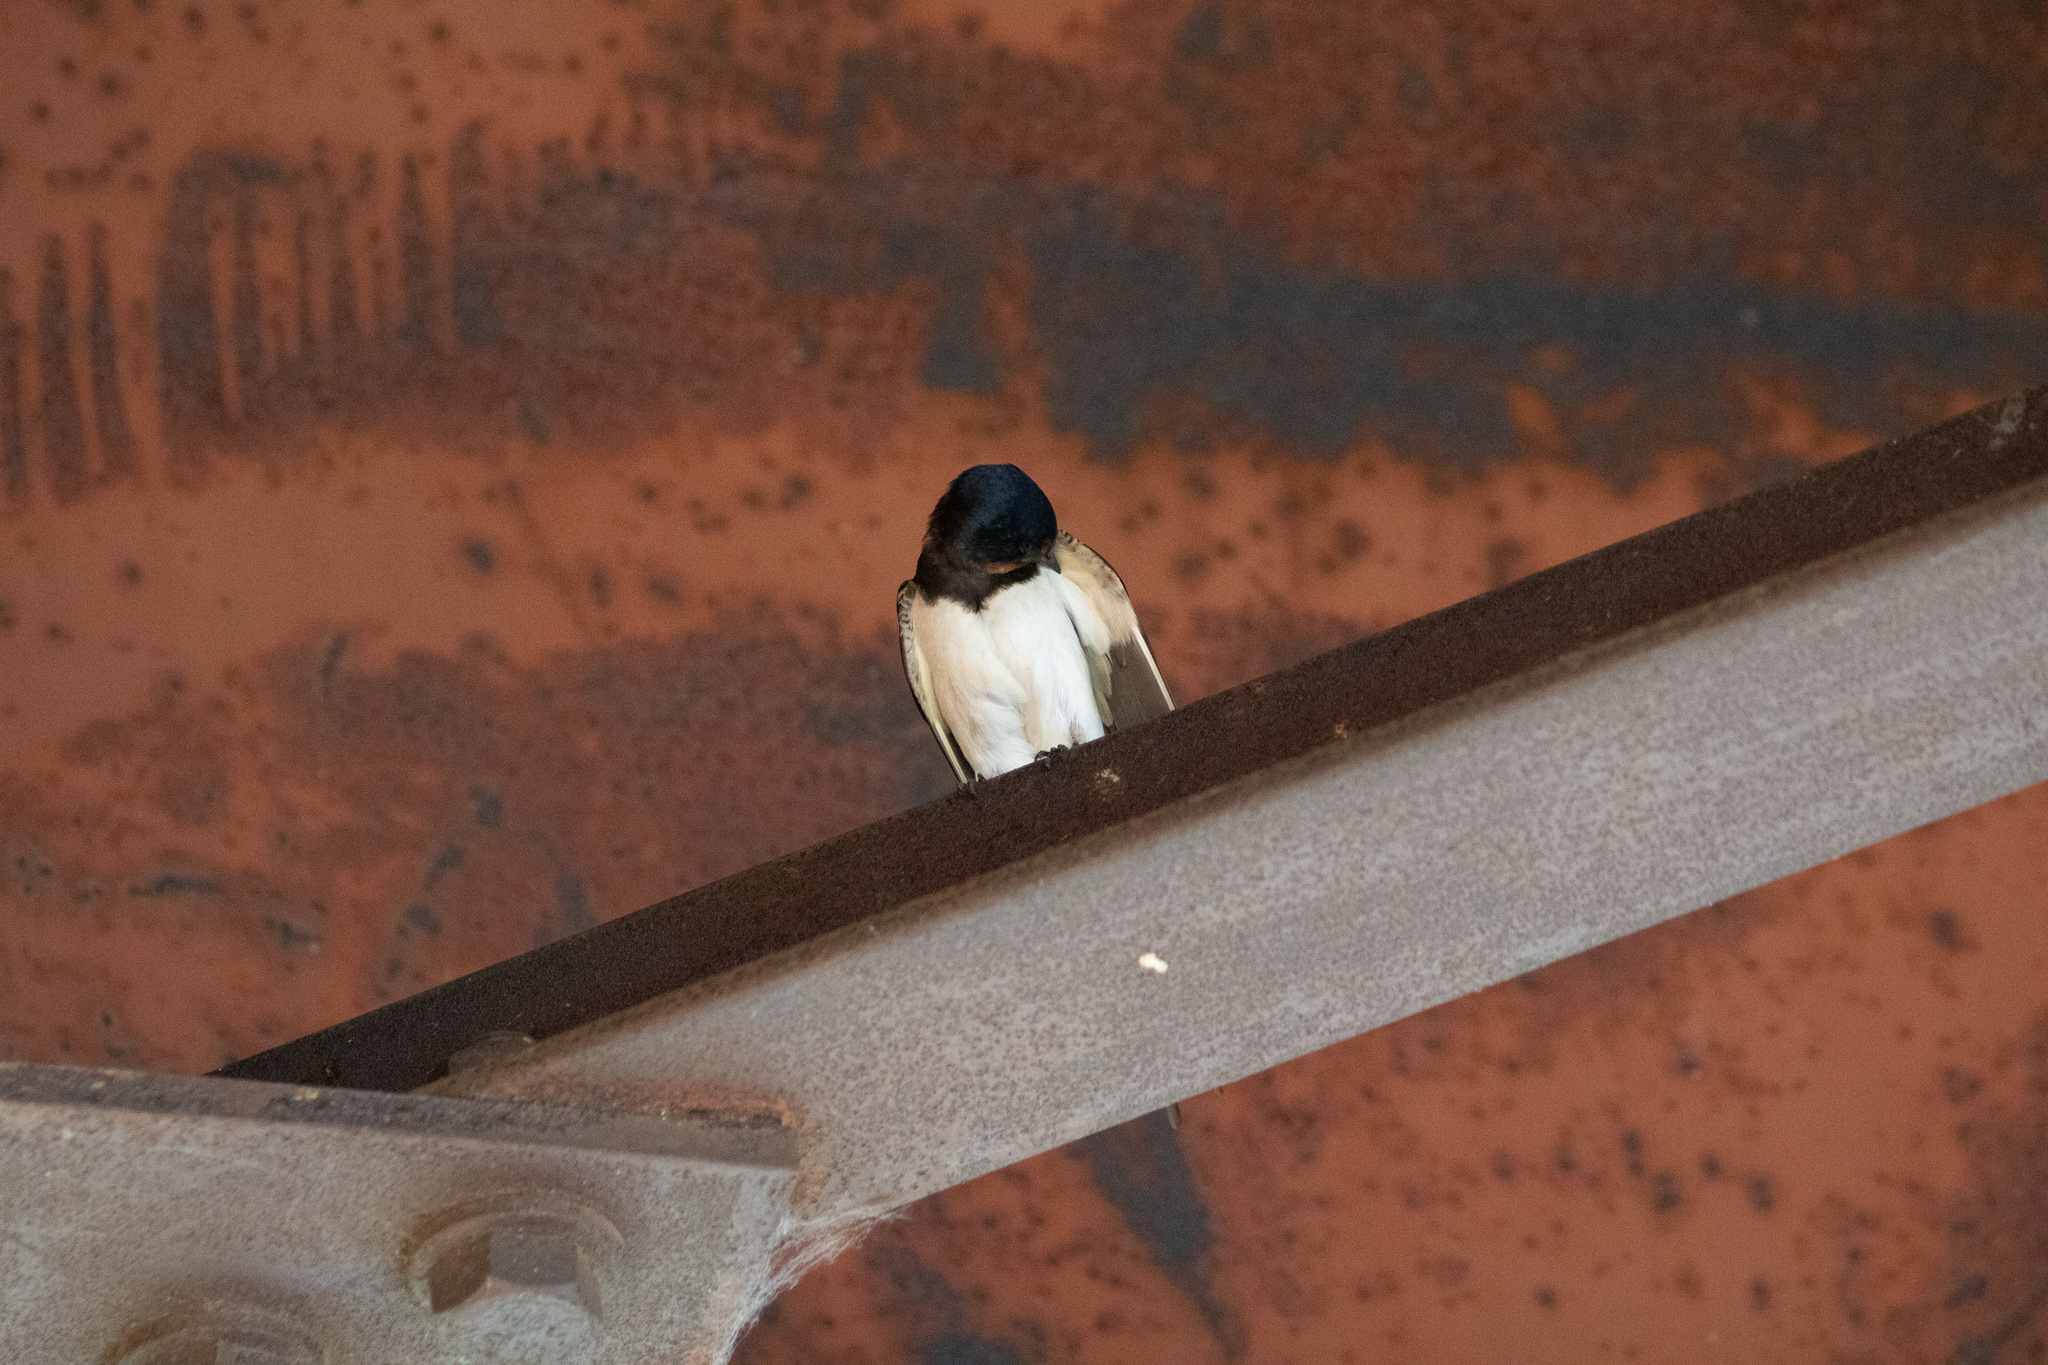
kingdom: Animalia
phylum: Chordata
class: Aves
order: Passeriformes
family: Hirundinidae
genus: Hirundo
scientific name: Hirundo rustica
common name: Barn swallow
